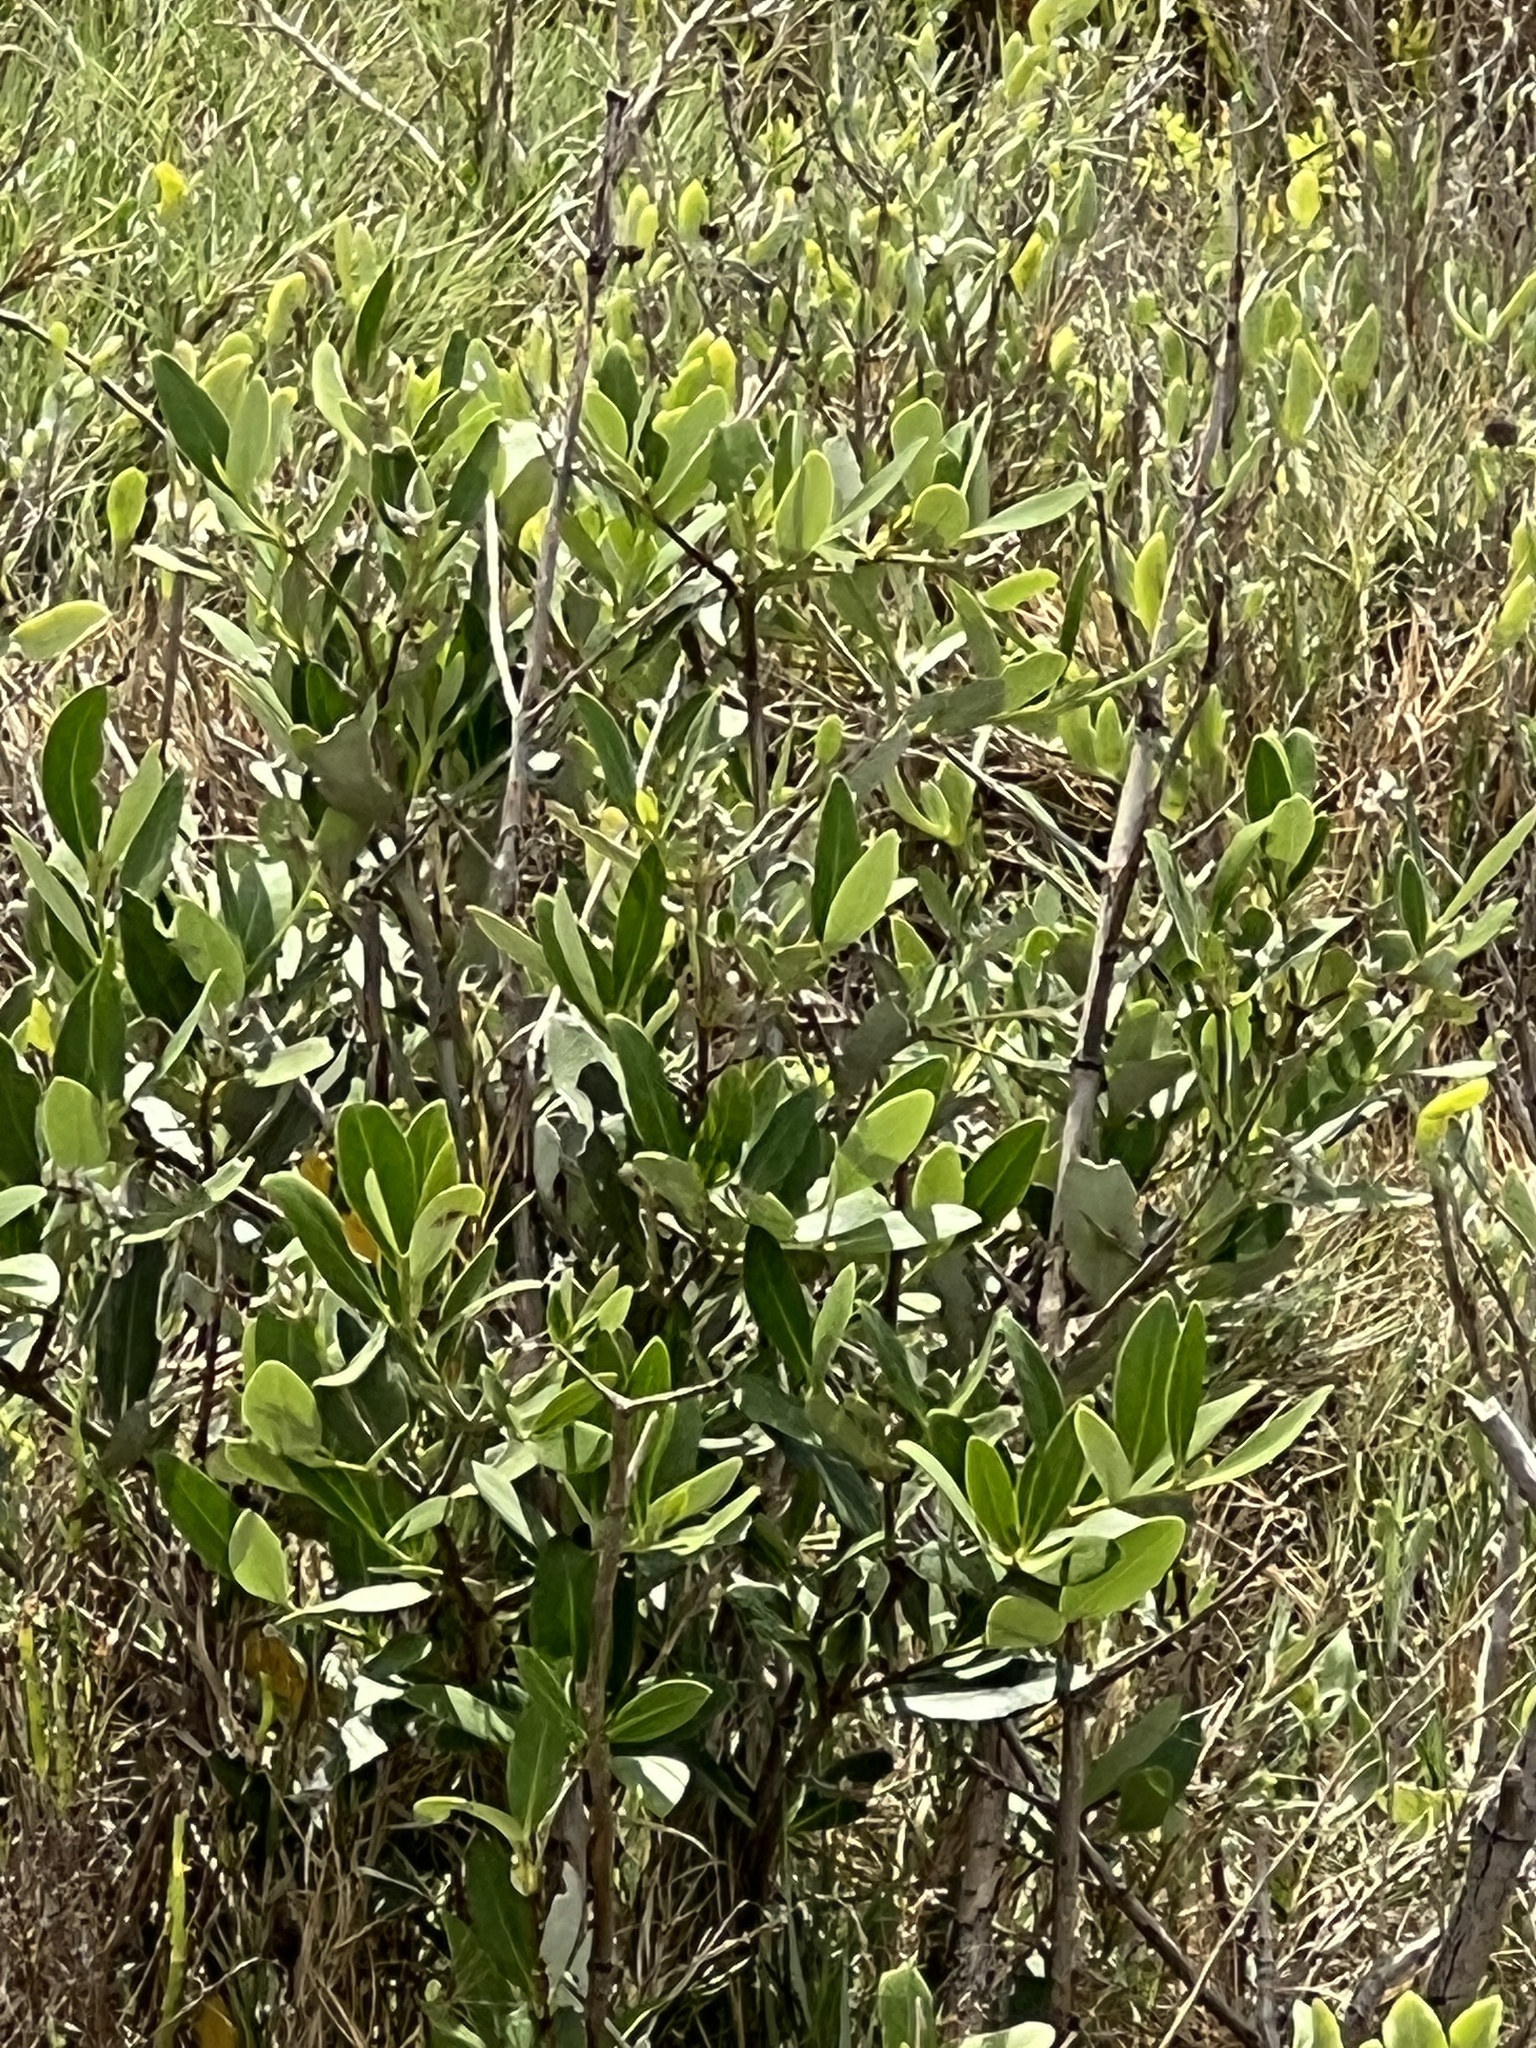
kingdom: Plantae
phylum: Tracheophyta
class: Magnoliopsida
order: Lamiales
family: Acanthaceae
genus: Avicennia
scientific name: Avicennia germinans
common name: Black mangrove
